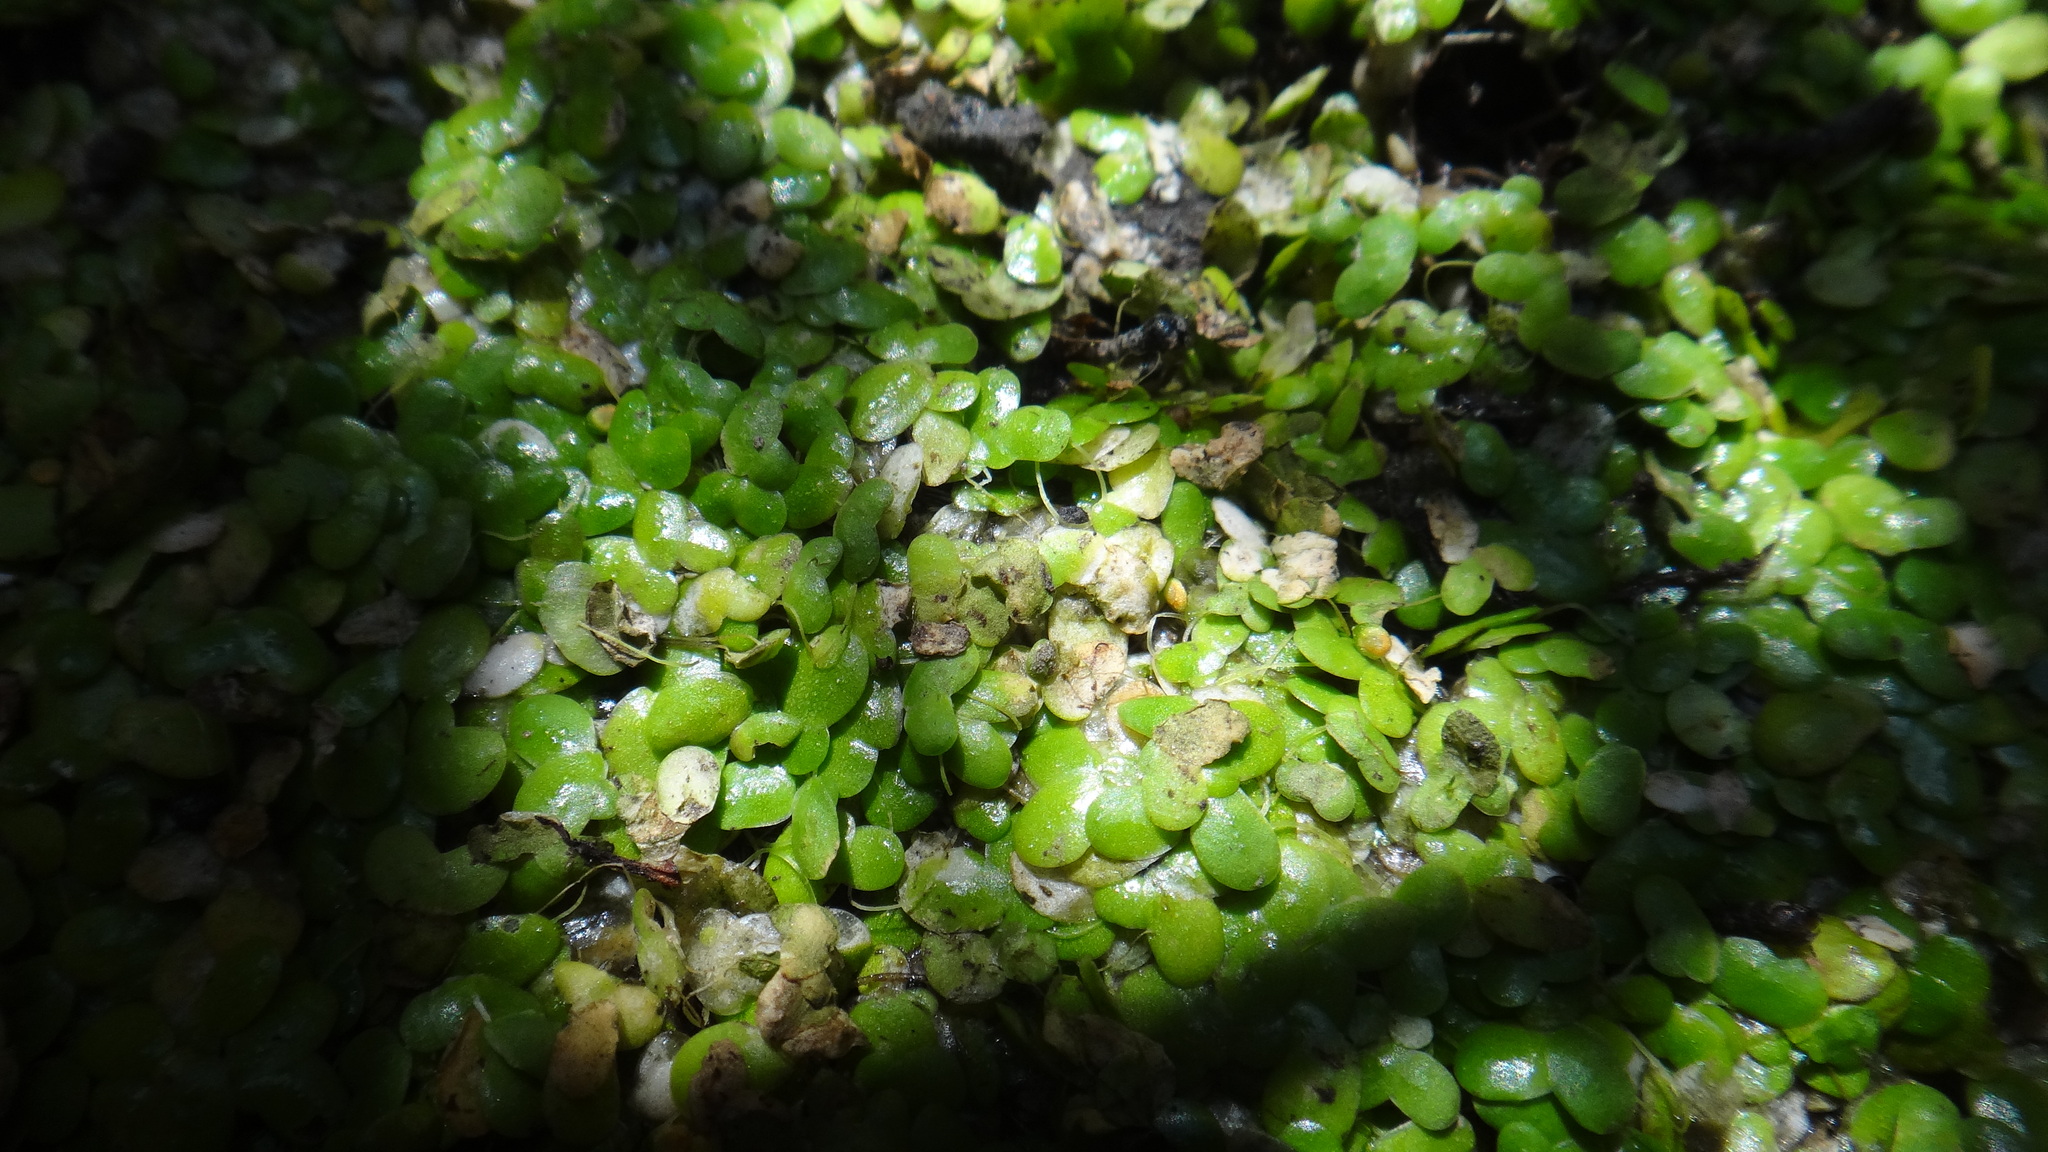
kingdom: Plantae
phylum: Tracheophyta
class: Liliopsida
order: Alismatales
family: Araceae
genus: Lemna
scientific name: Lemna minor
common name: Common duckweed
